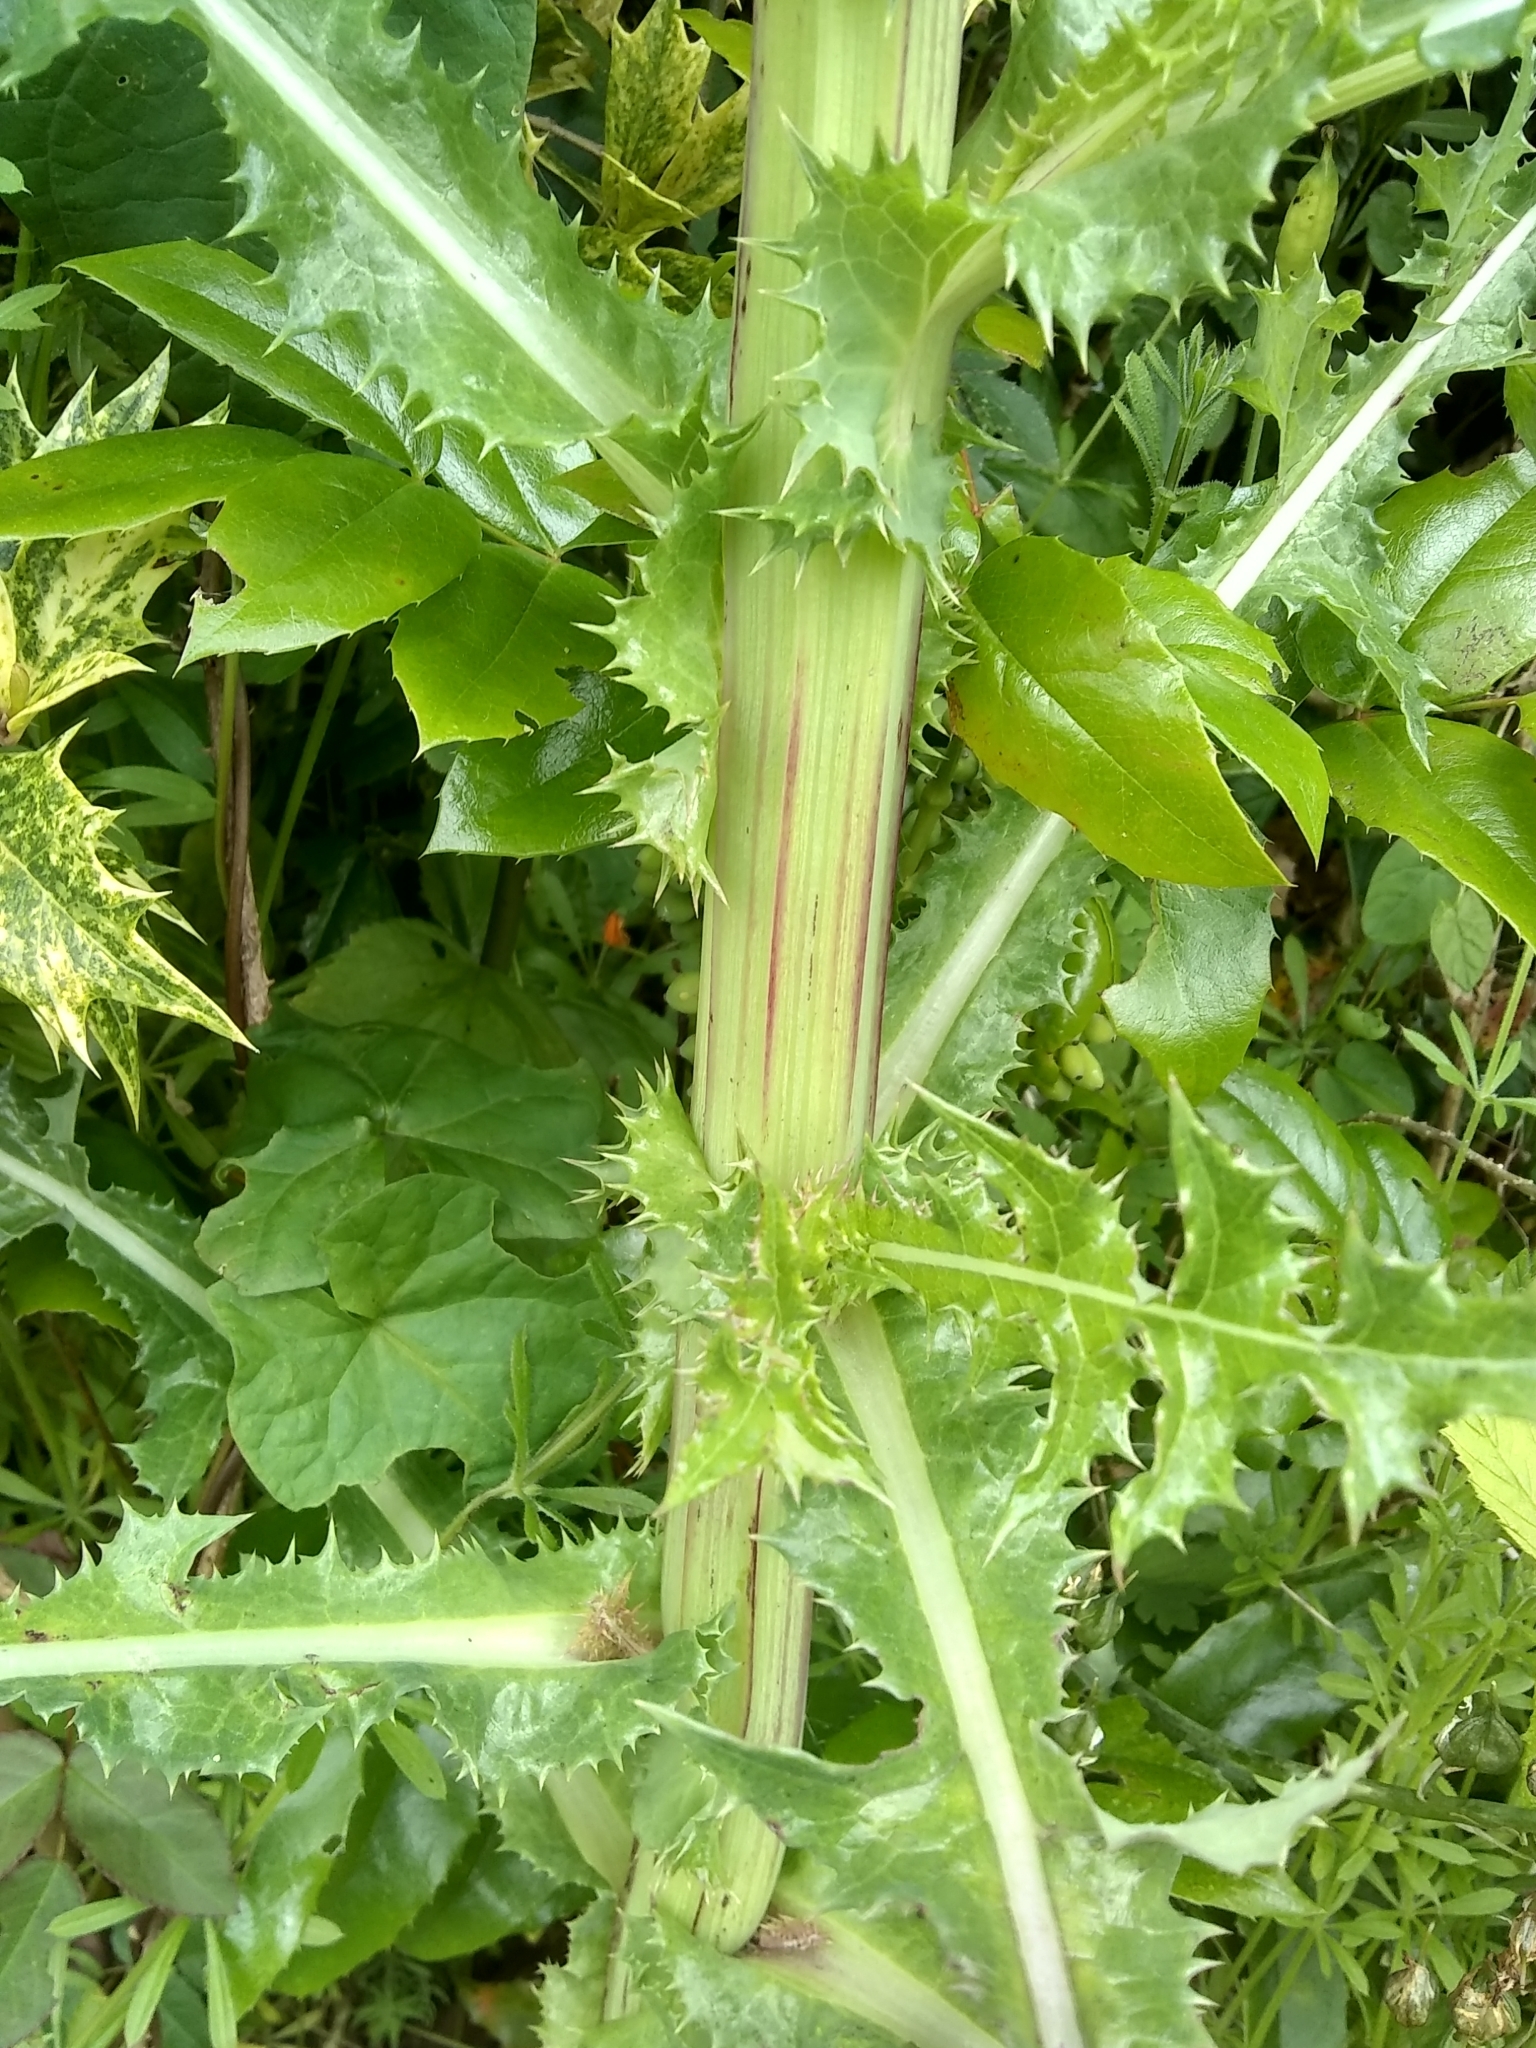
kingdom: Plantae
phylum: Tracheophyta
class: Magnoliopsida
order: Asterales
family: Asteraceae
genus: Sonchus
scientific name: Sonchus asper
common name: Prickly sow-thistle
